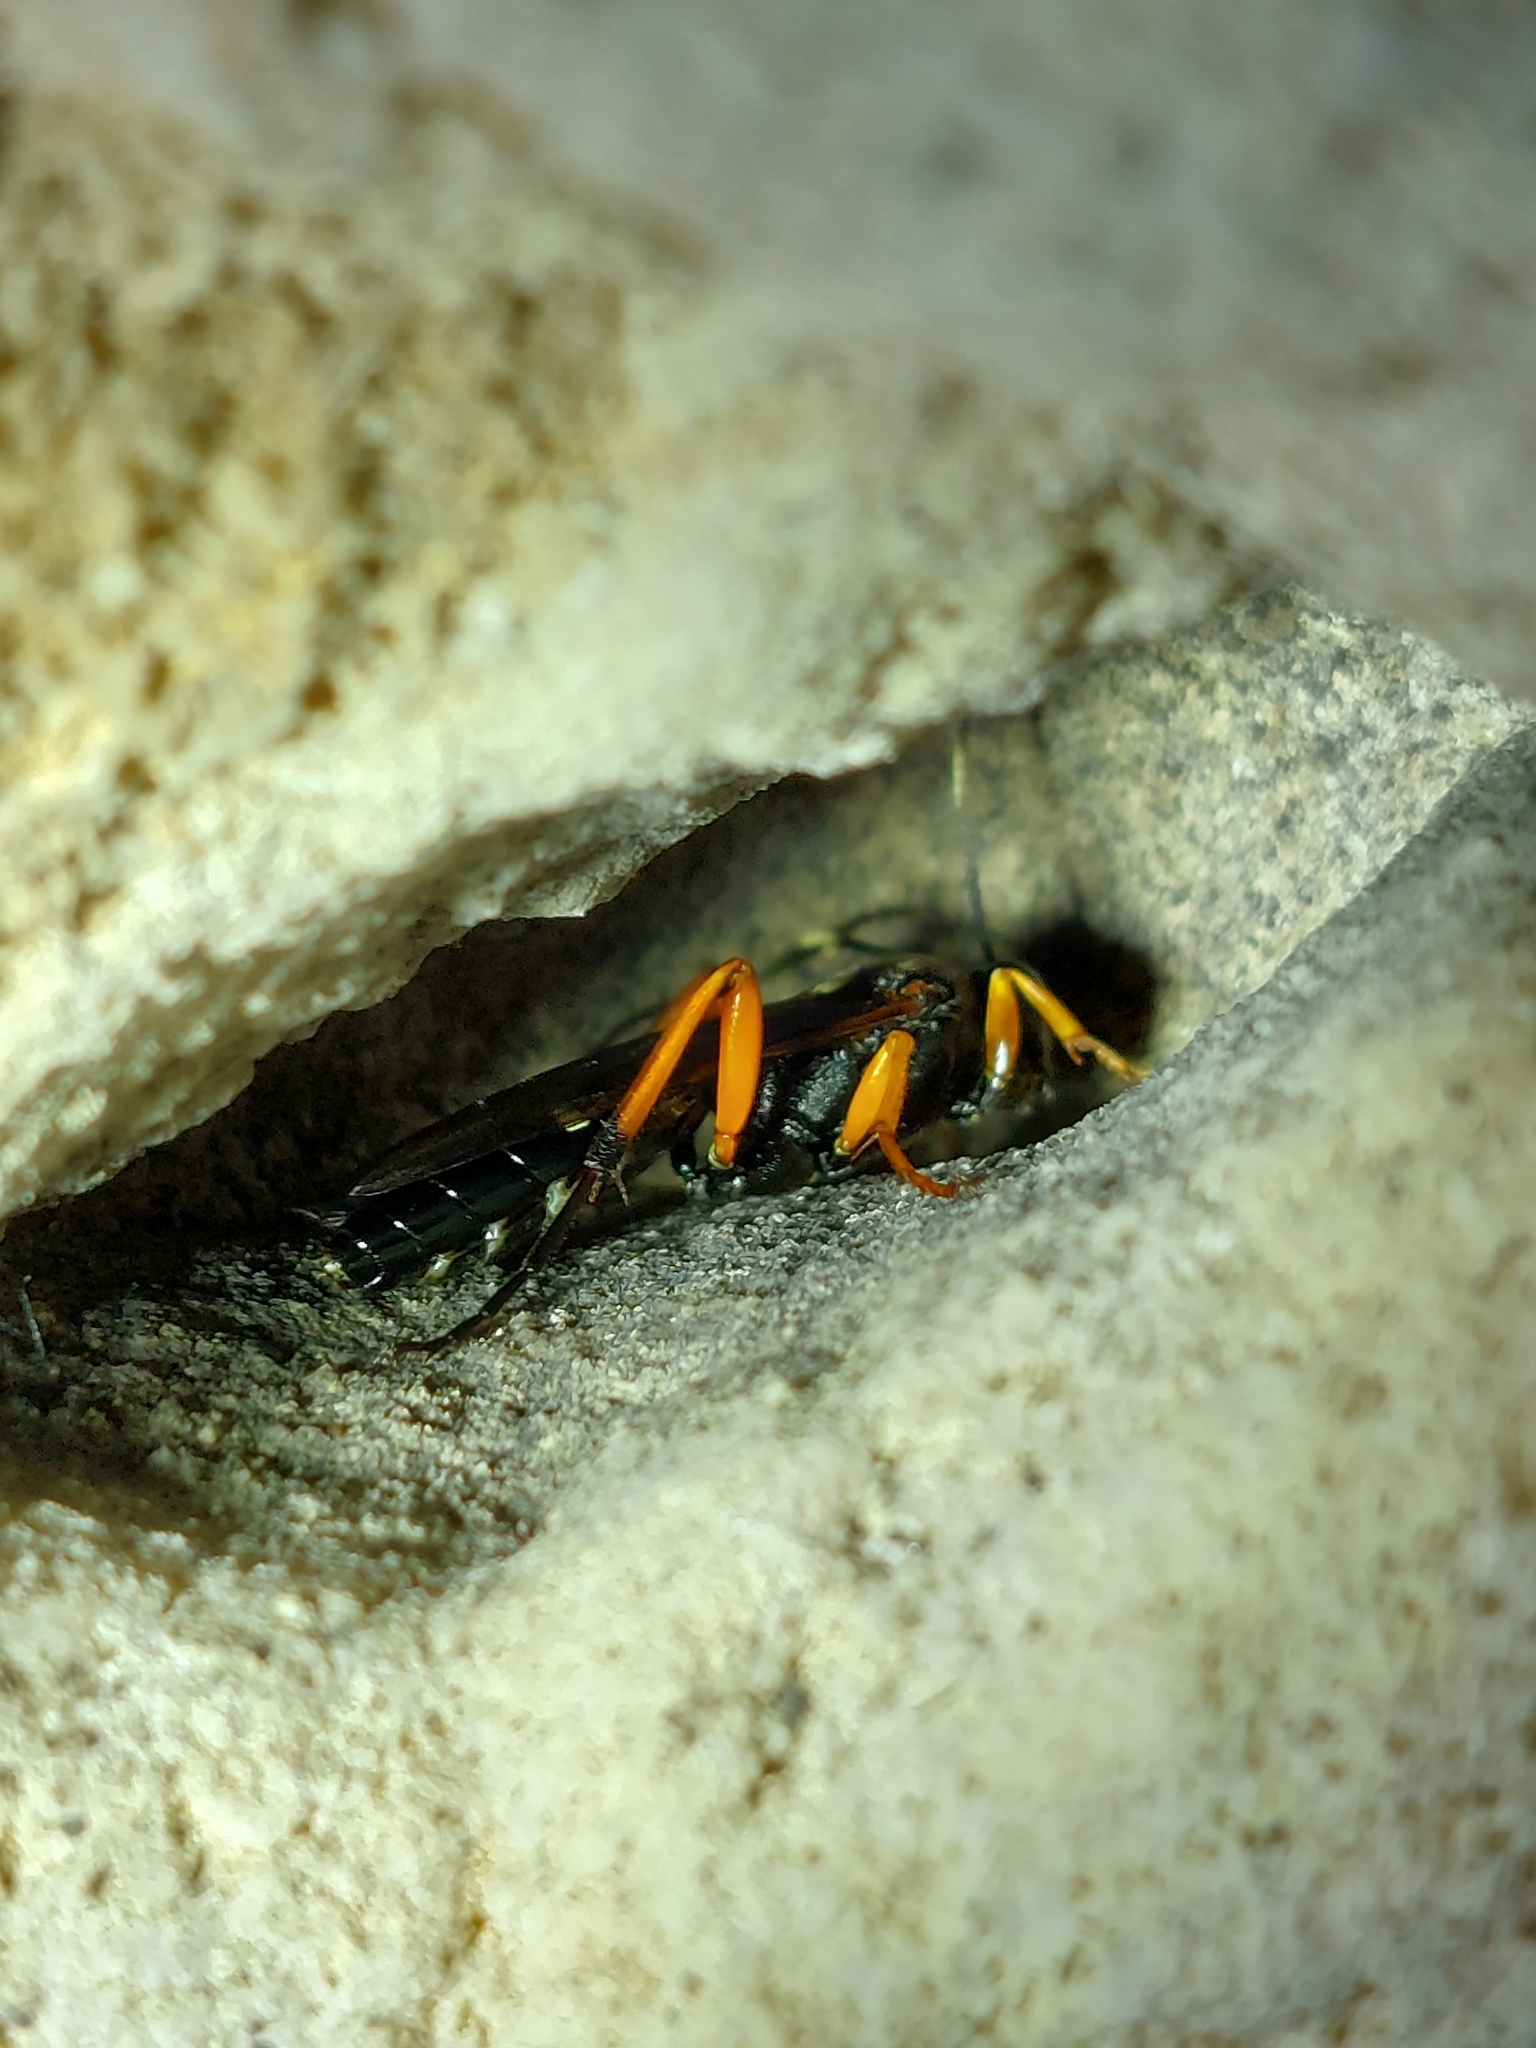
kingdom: Animalia
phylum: Arthropoda
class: Insecta
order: Hymenoptera
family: Ichneumonidae
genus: Diphyus
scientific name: Diphyus quadripunctorius
